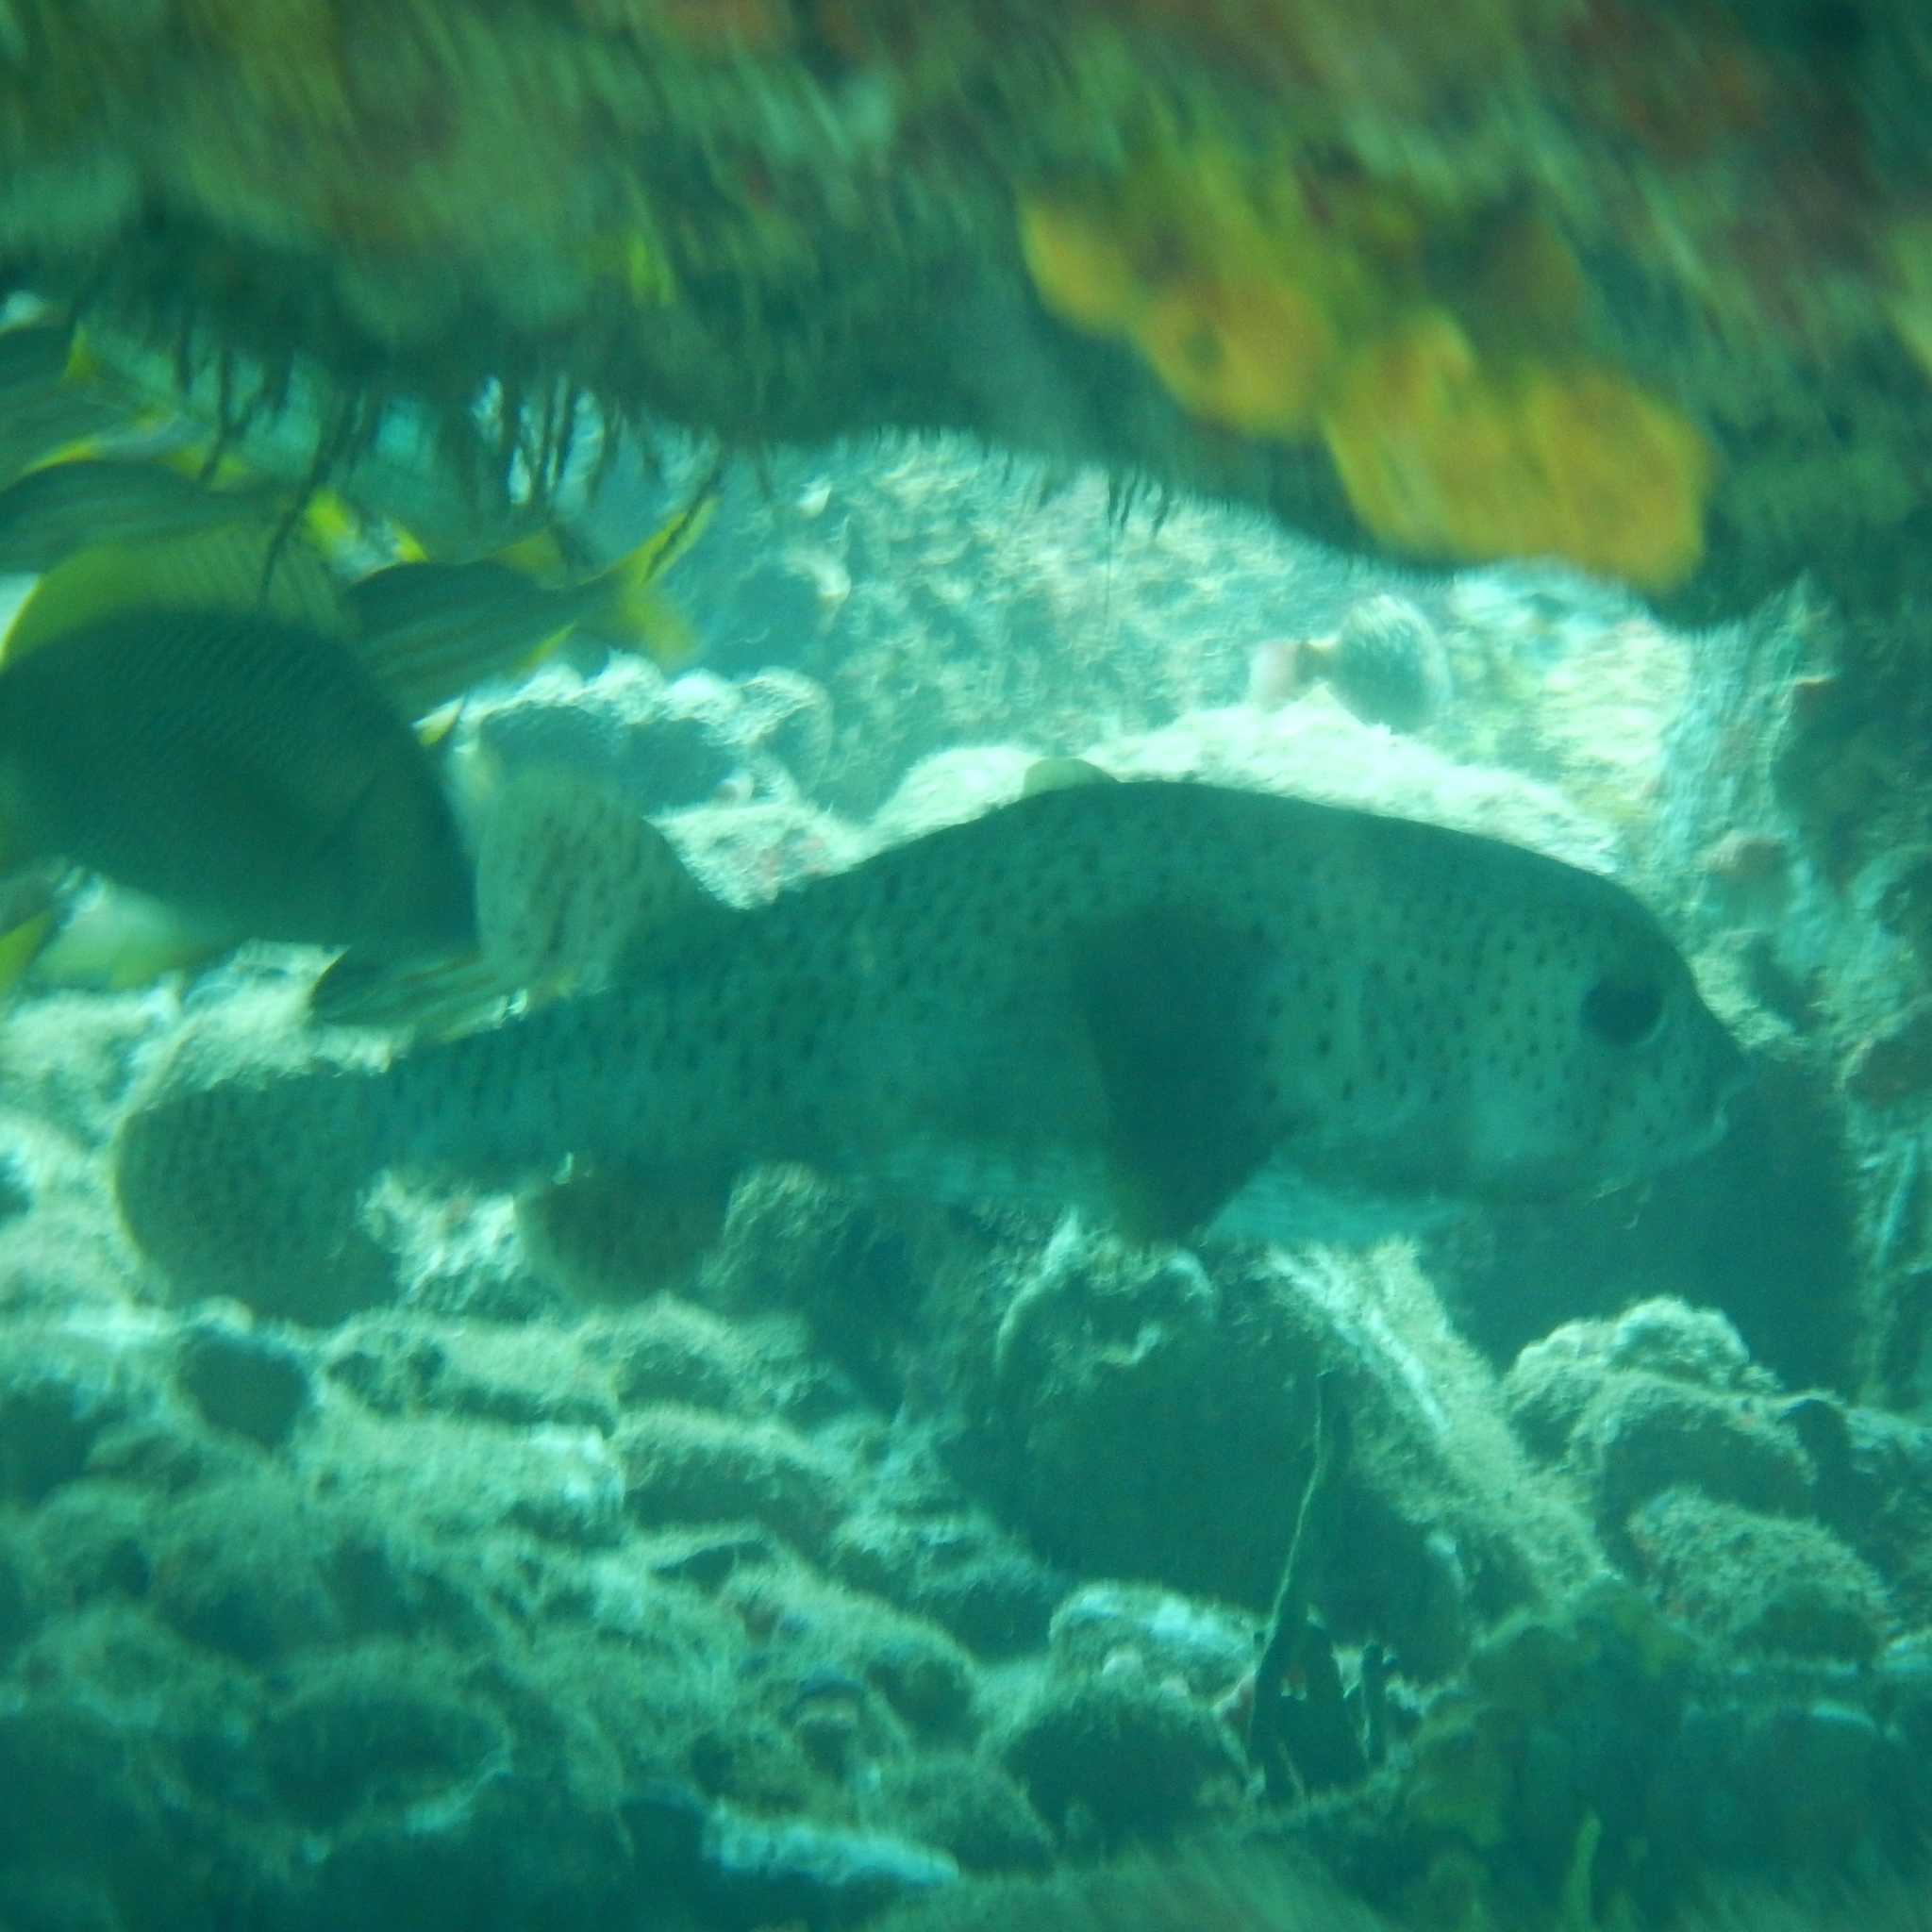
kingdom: Animalia
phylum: Chordata
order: Tetraodontiformes
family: Diodontidae
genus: Diodon
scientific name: Diodon hystrix
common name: Giant porcupinefish
